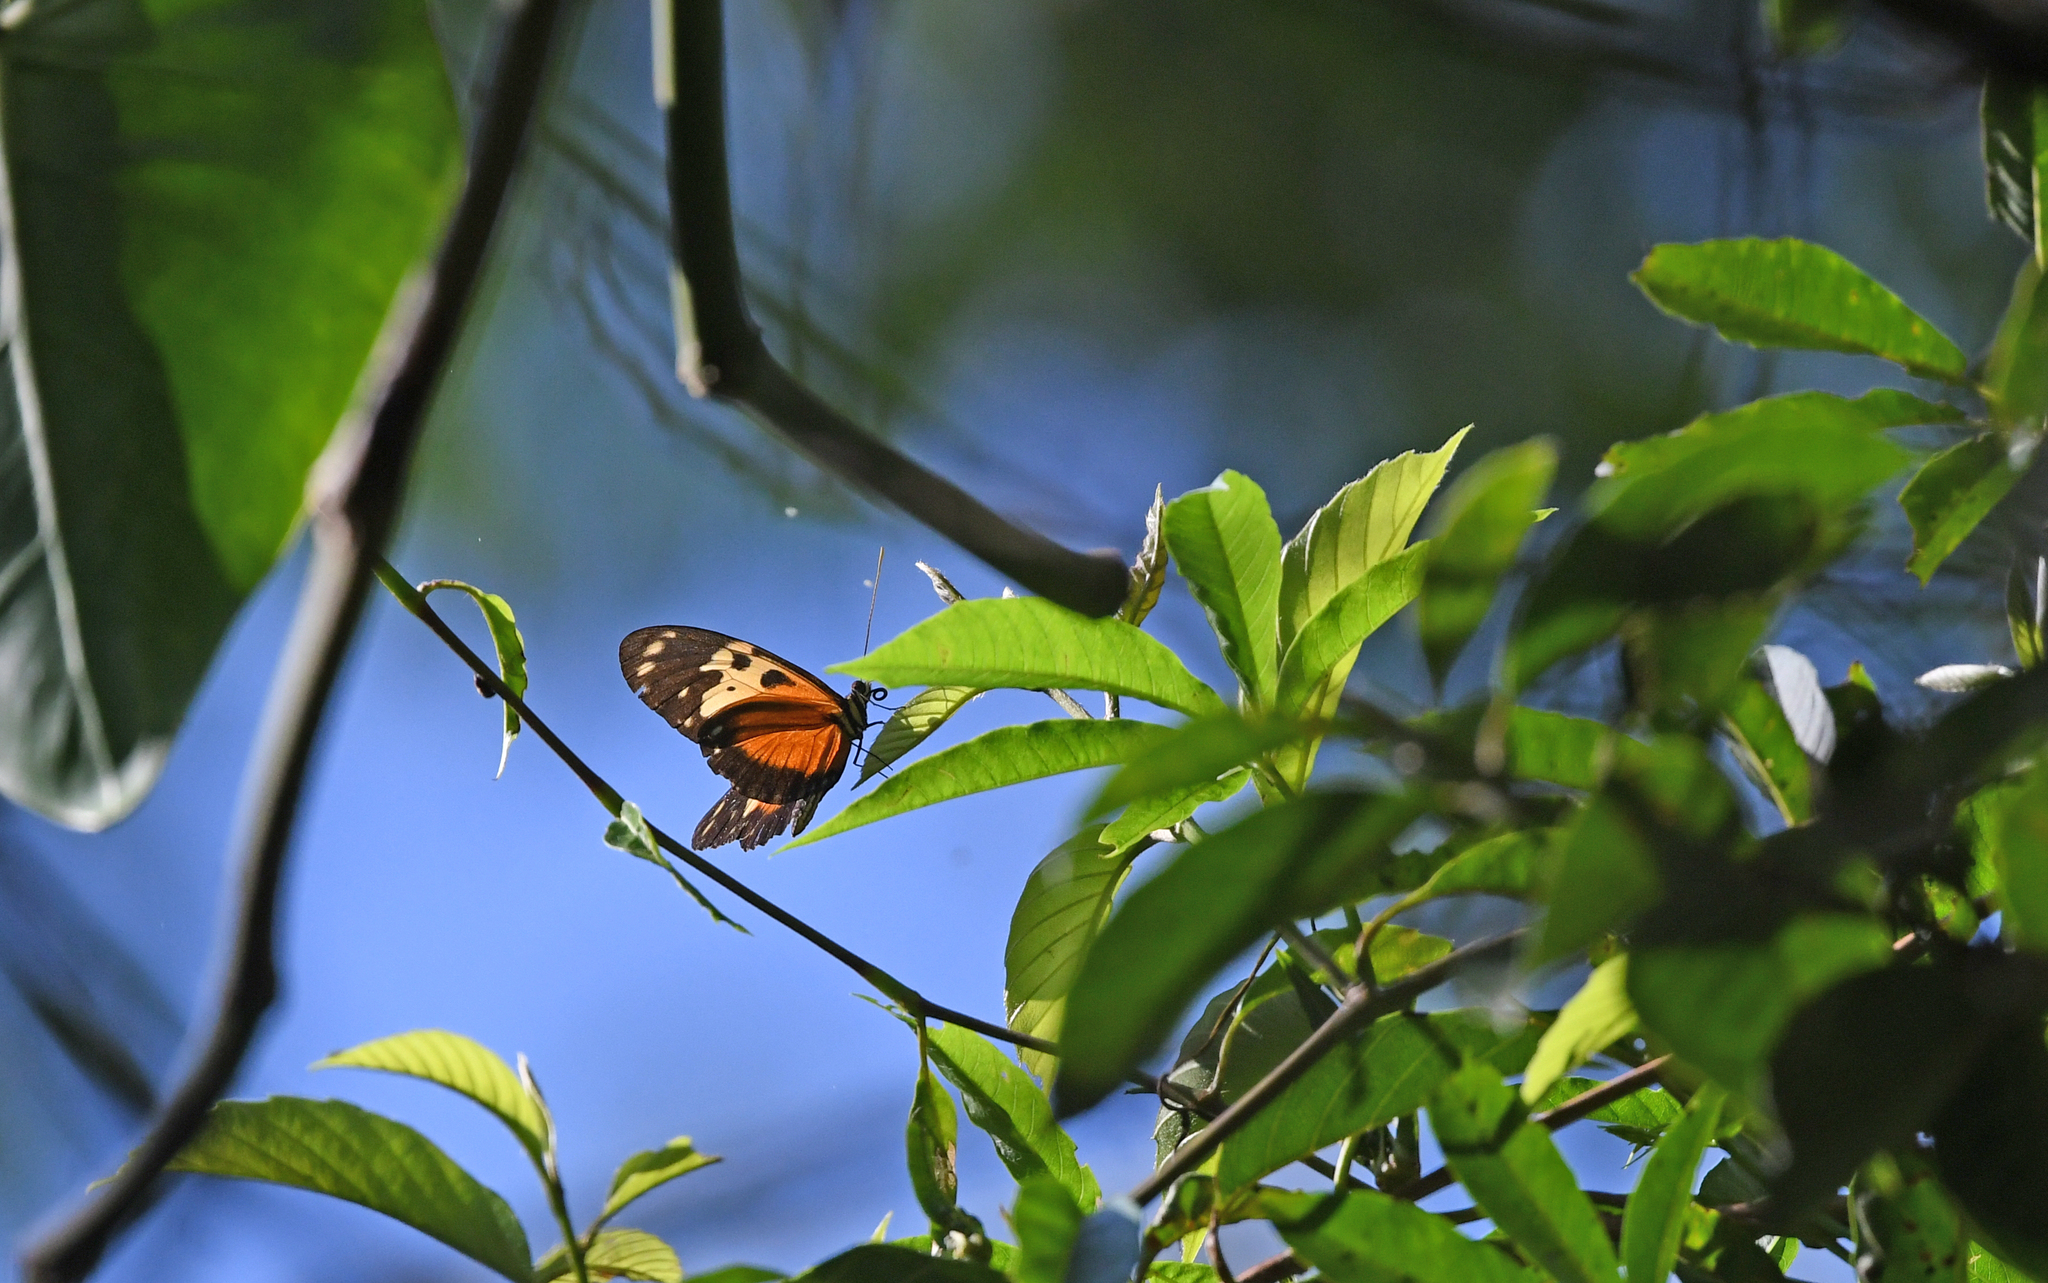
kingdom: Animalia
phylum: Arthropoda
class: Insecta
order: Lepidoptera
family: Nymphalidae
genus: Heliconius
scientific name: Heliconius hecale
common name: Tiger longwing
